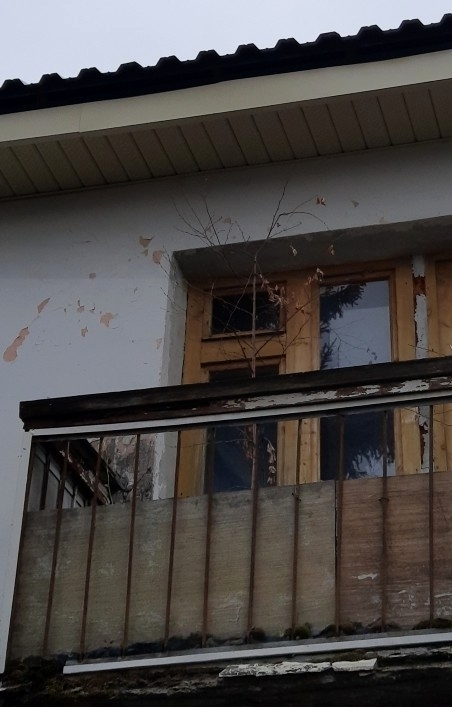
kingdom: Plantae
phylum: Tracheophyta
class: Magnoliopsida
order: Fagales
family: Betulaceae
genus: Betula
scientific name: Betula pendula
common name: Silver birch
